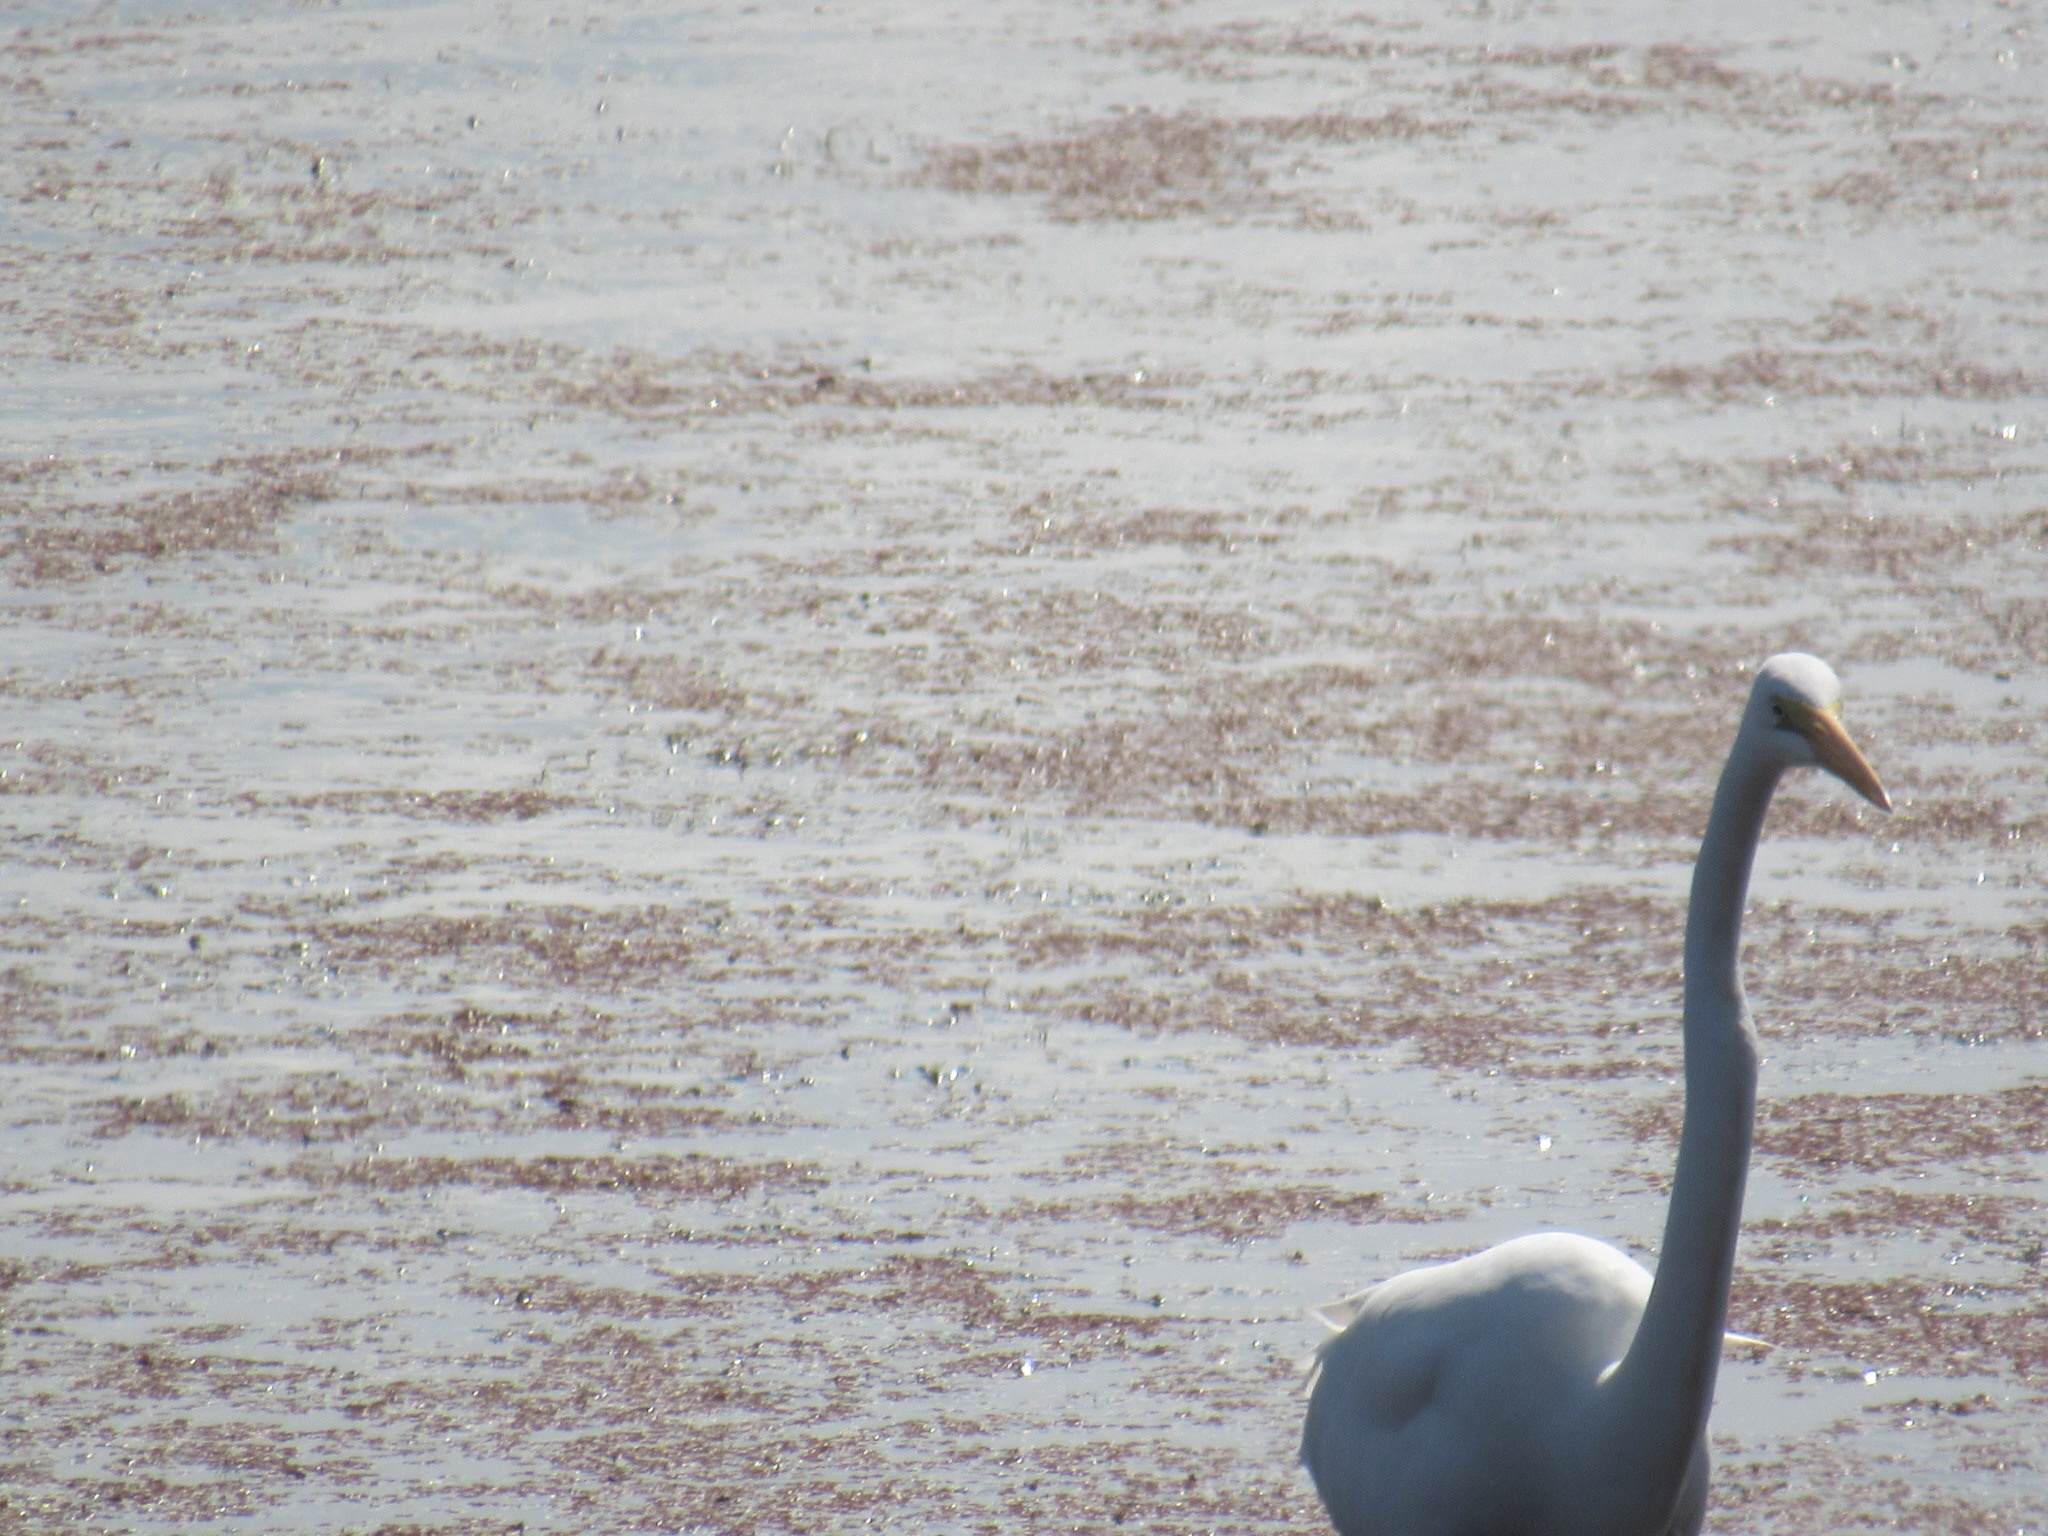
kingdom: Animalia
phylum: Chordata
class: Aves
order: Pelecaniformes
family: Ardeidae
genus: Ardea
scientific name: Ardea alba
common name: Great egret
